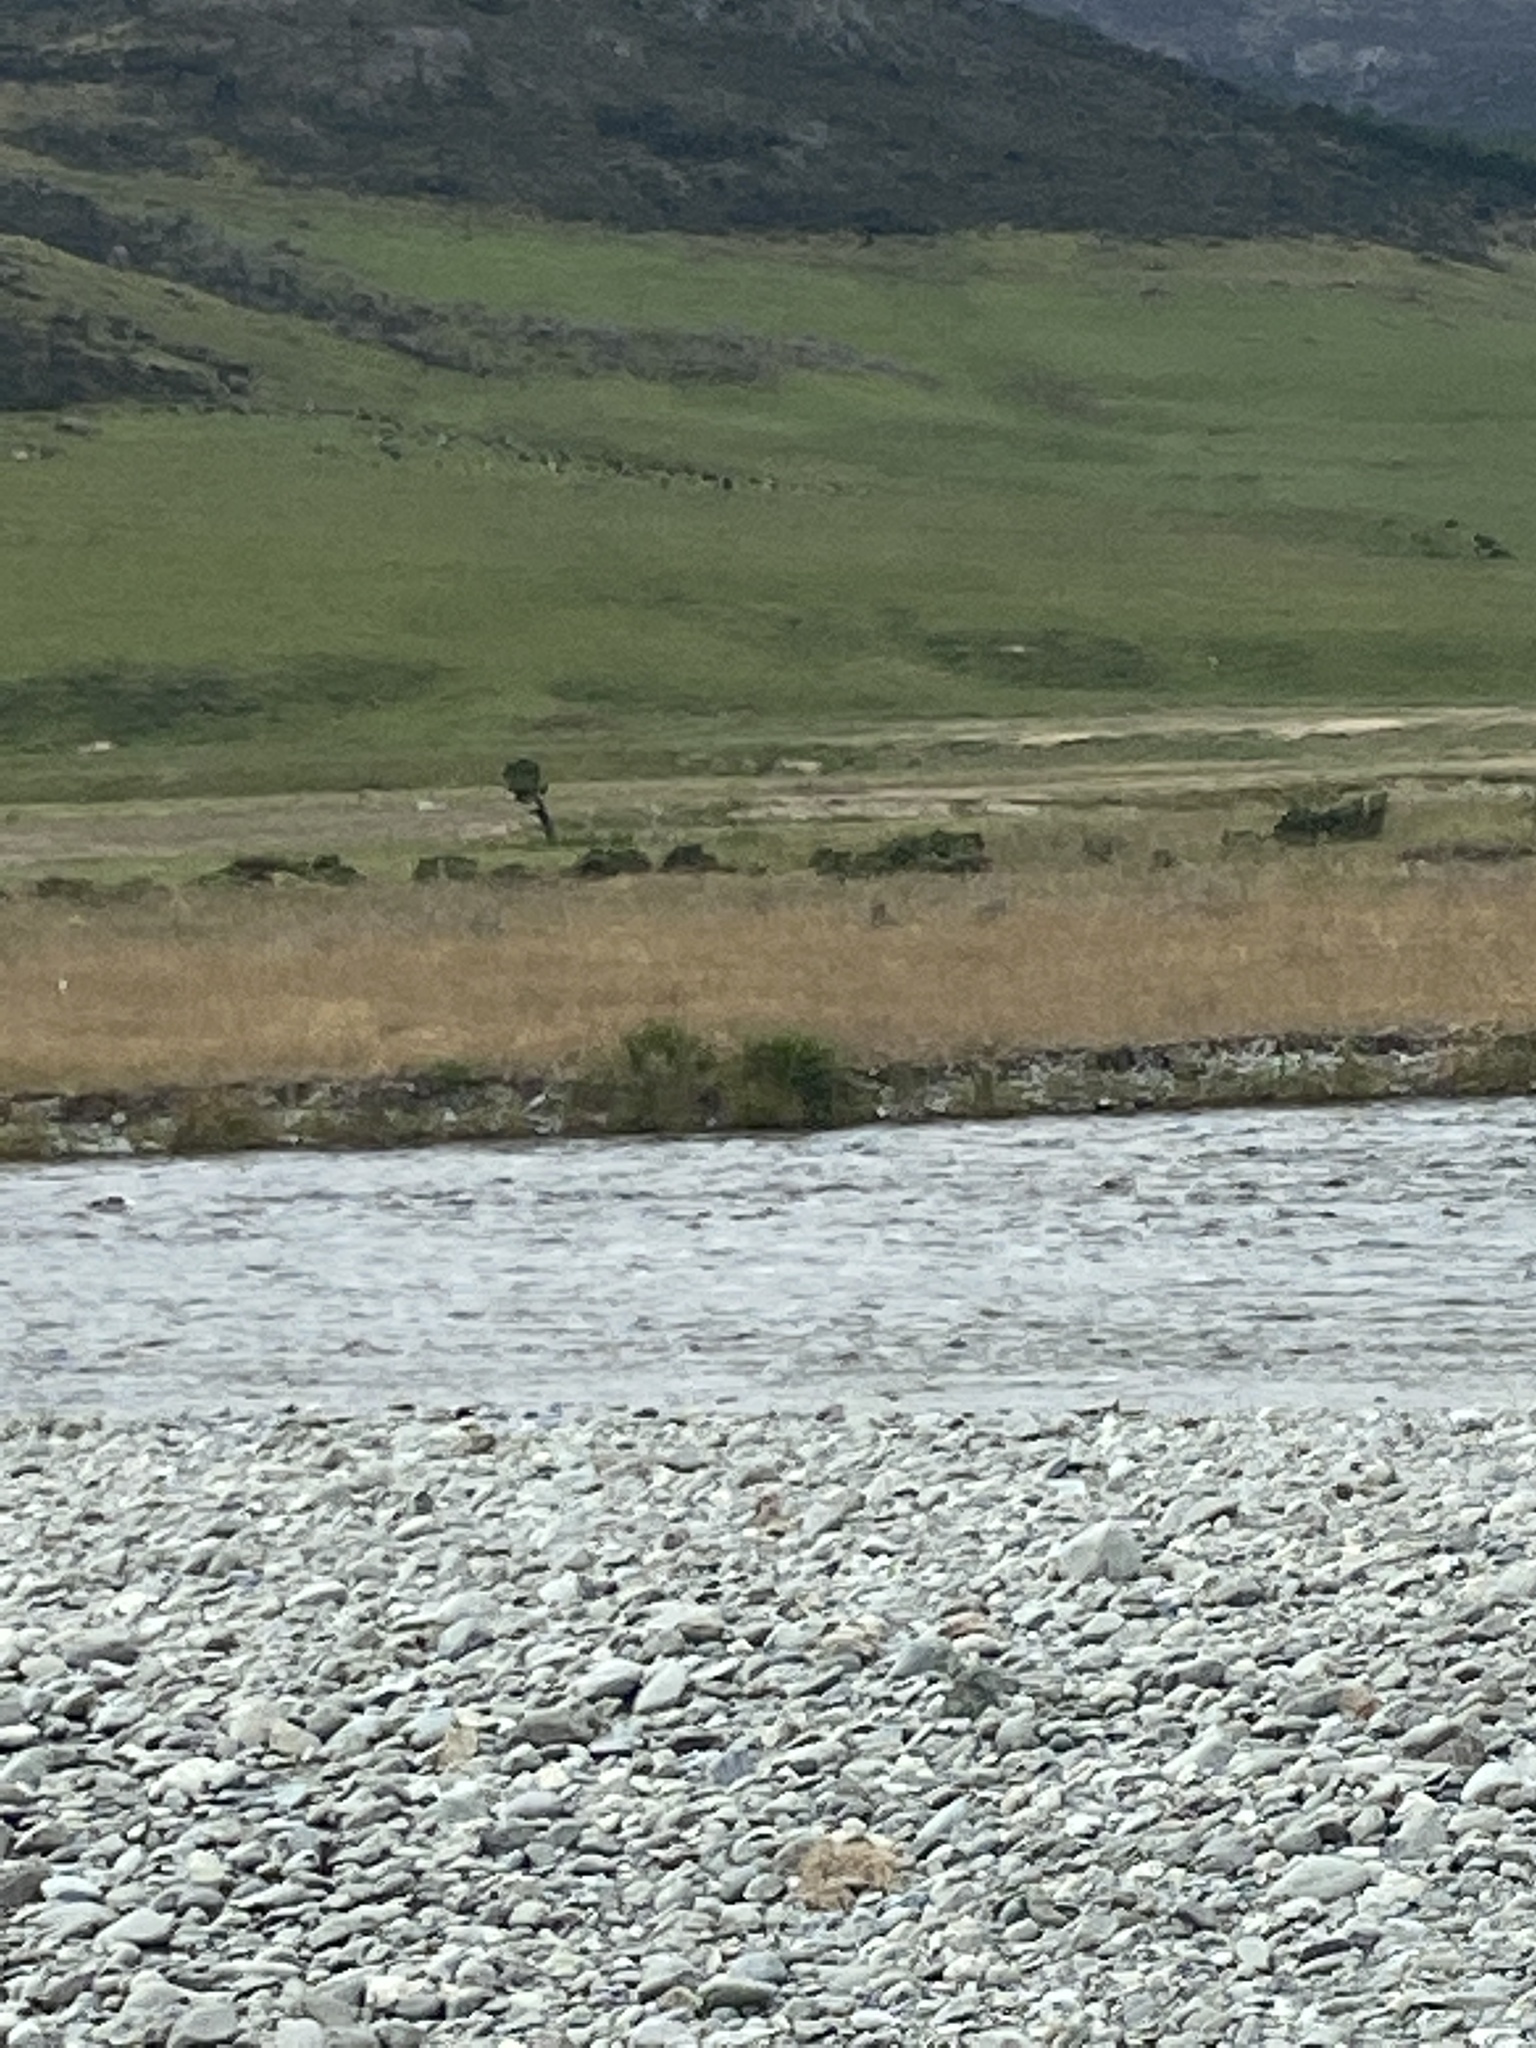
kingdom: Animalia
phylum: Chordata
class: Aves
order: Charadriiformes
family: Laridae
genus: Chlidonias
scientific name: Chlidonias albostriatus
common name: Black-fronted tern
